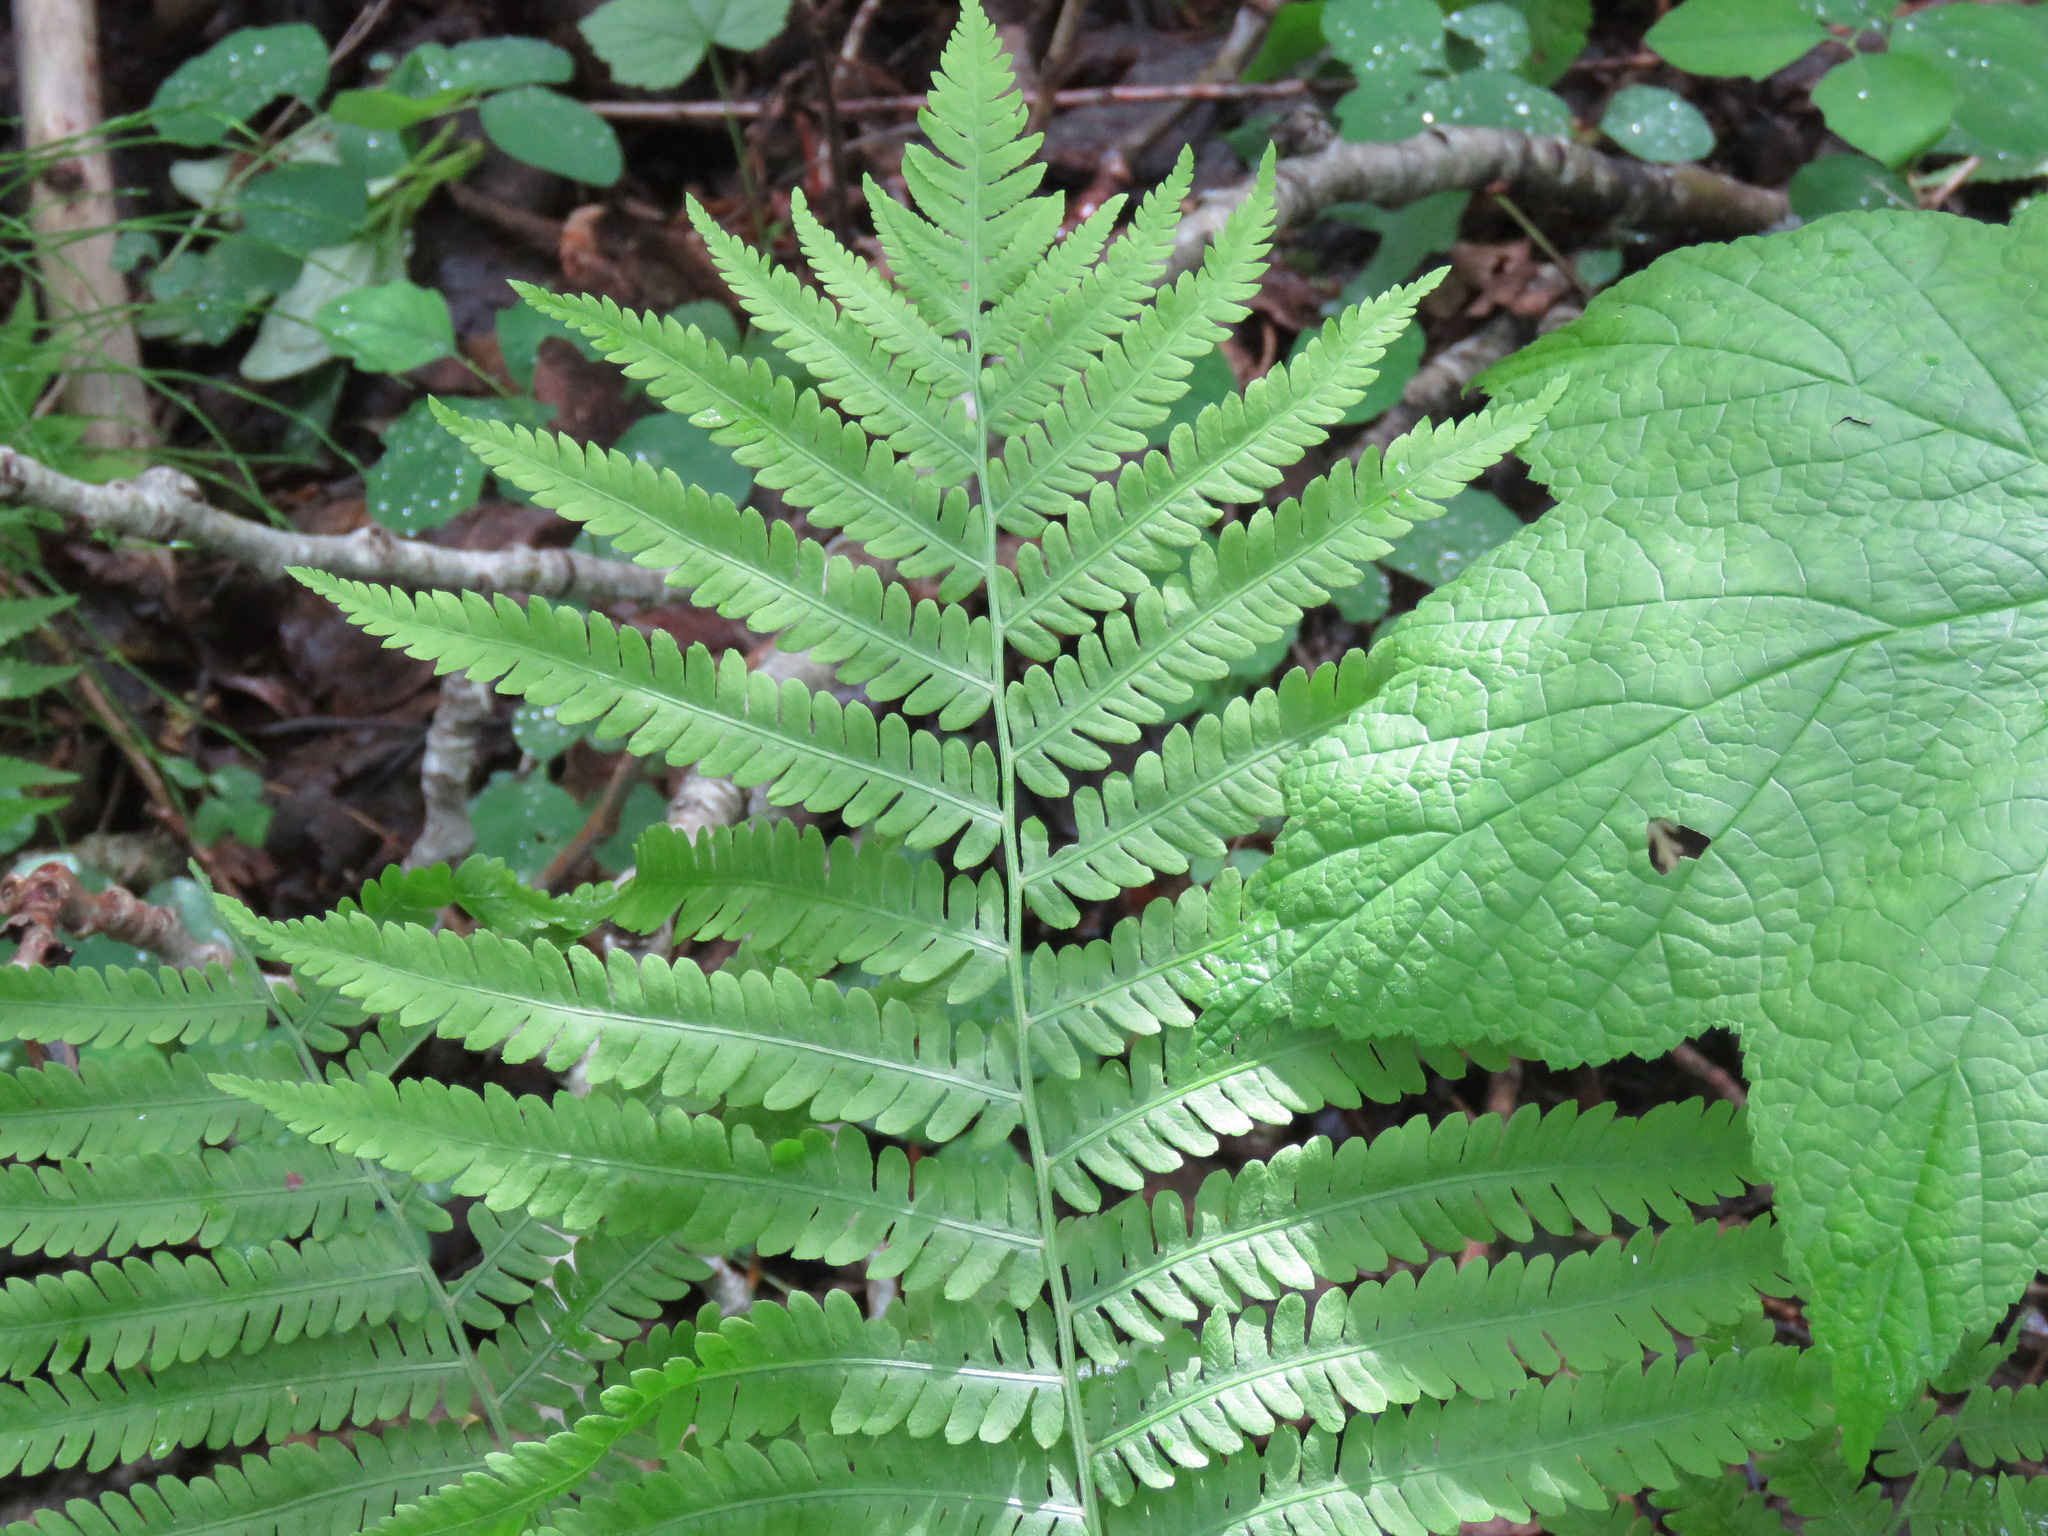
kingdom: Plantae
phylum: Tracheophyta
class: Polypodiopsida
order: Polypodiales
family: Onocleaceae
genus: Matteuccia
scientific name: Matteuccia struthiopteris
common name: Ostrich fern
